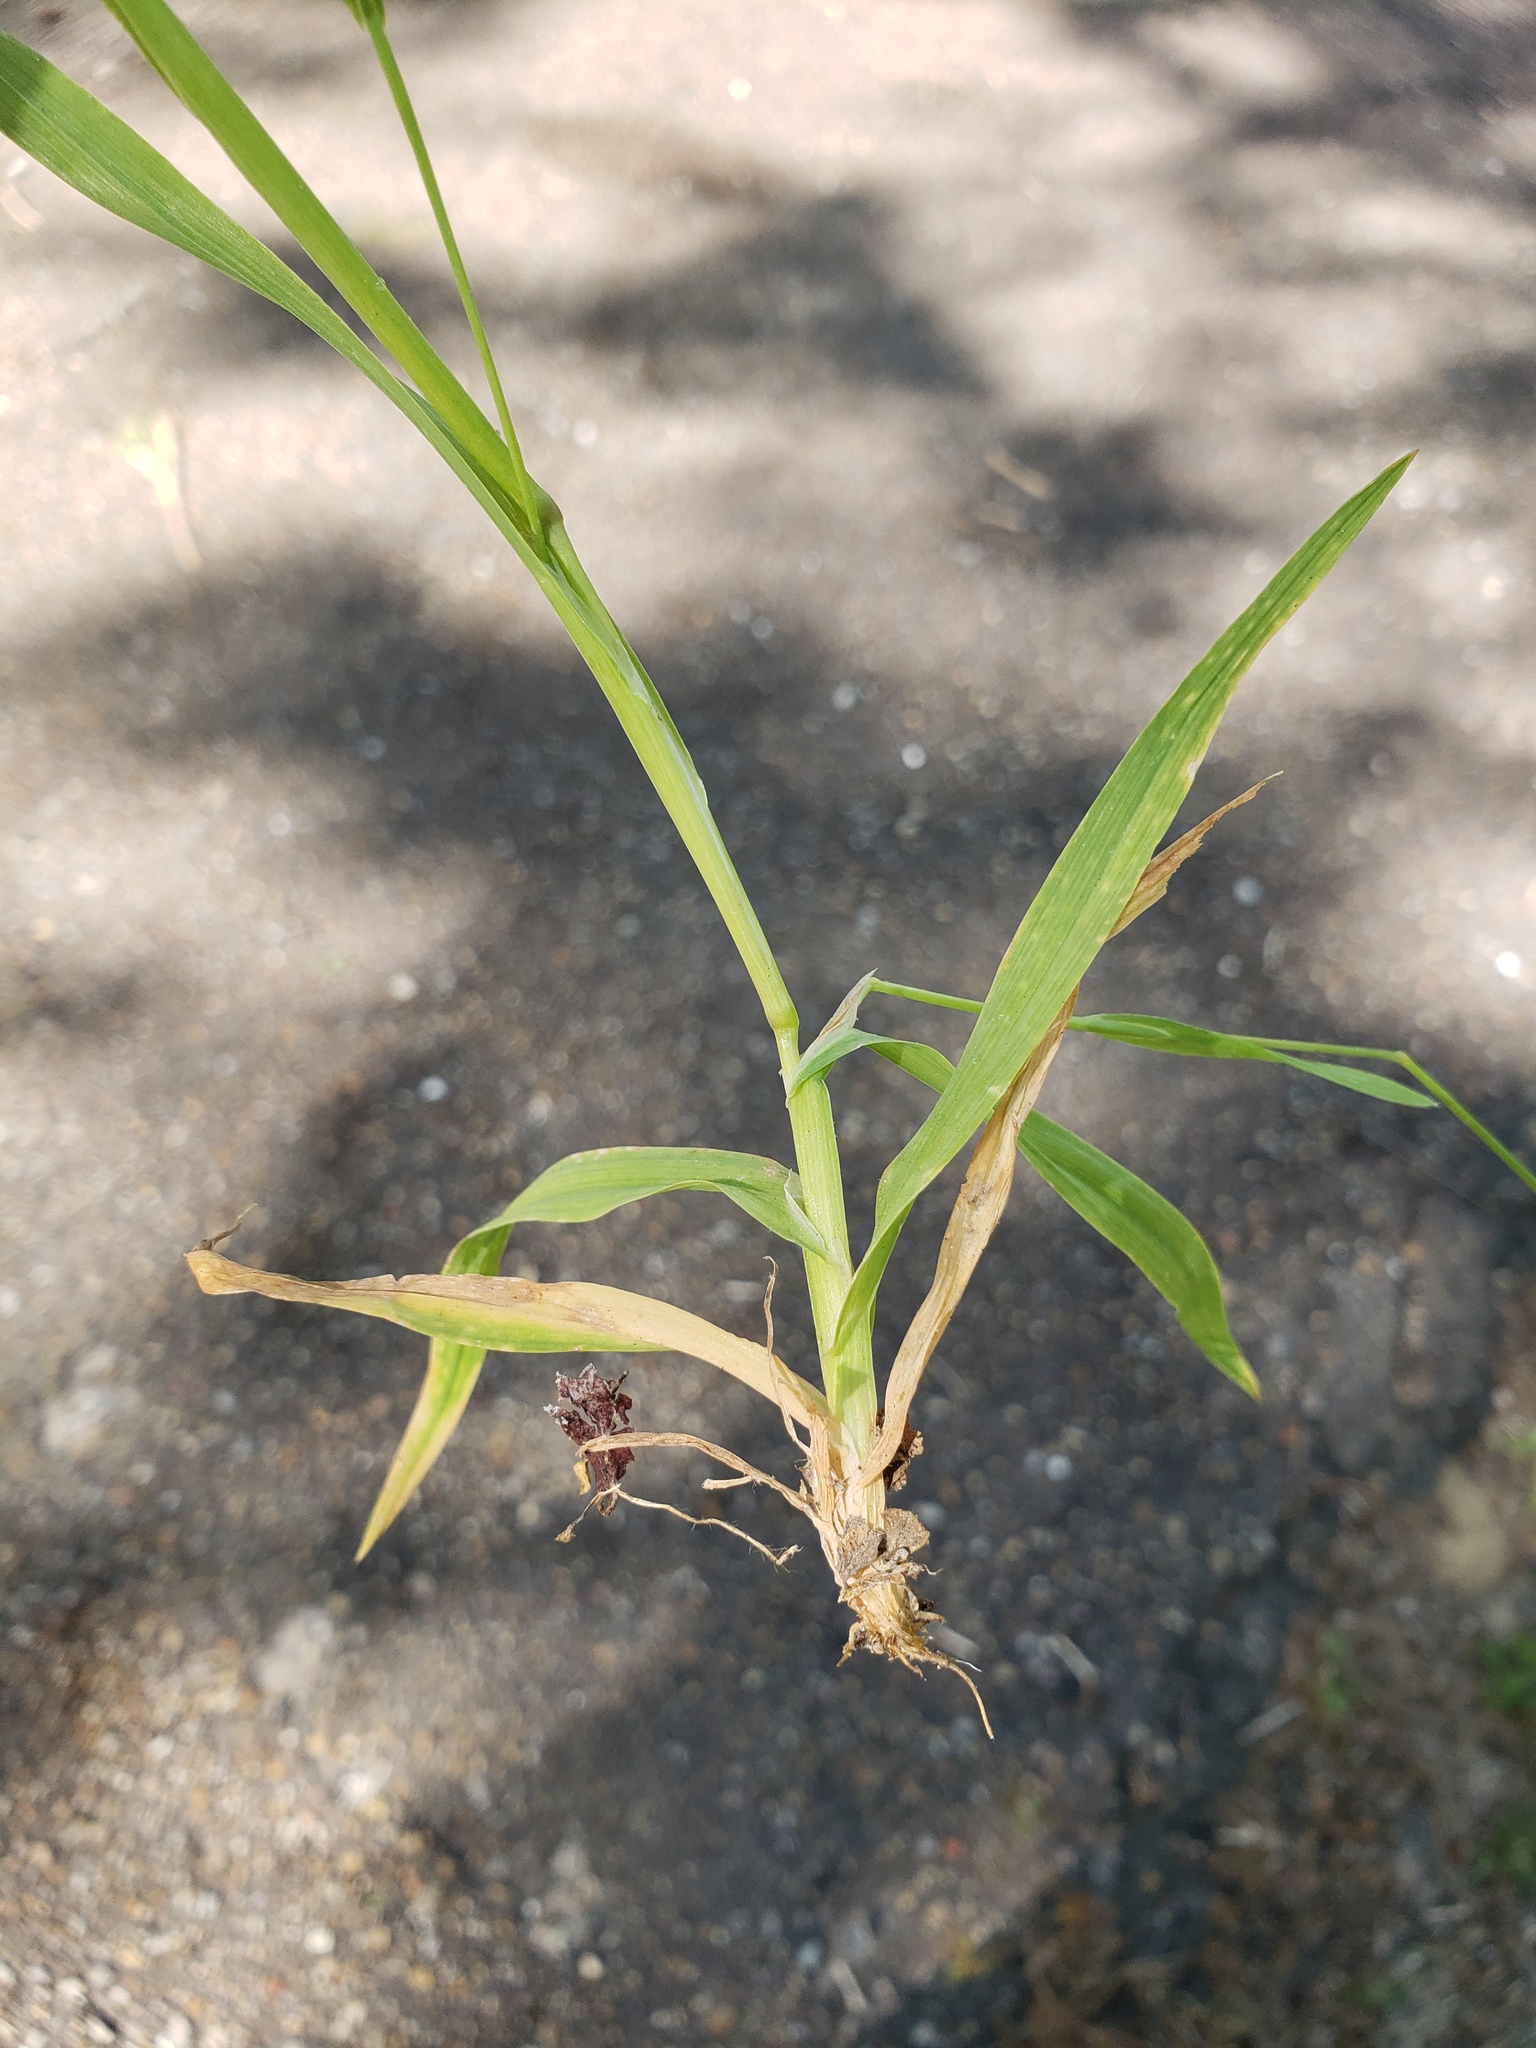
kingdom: Plantae
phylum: Tracheophyta
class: Liliopsida
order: Poales
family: Poaceae
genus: Briza
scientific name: Briza minor
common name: Lesser quaking-grass
